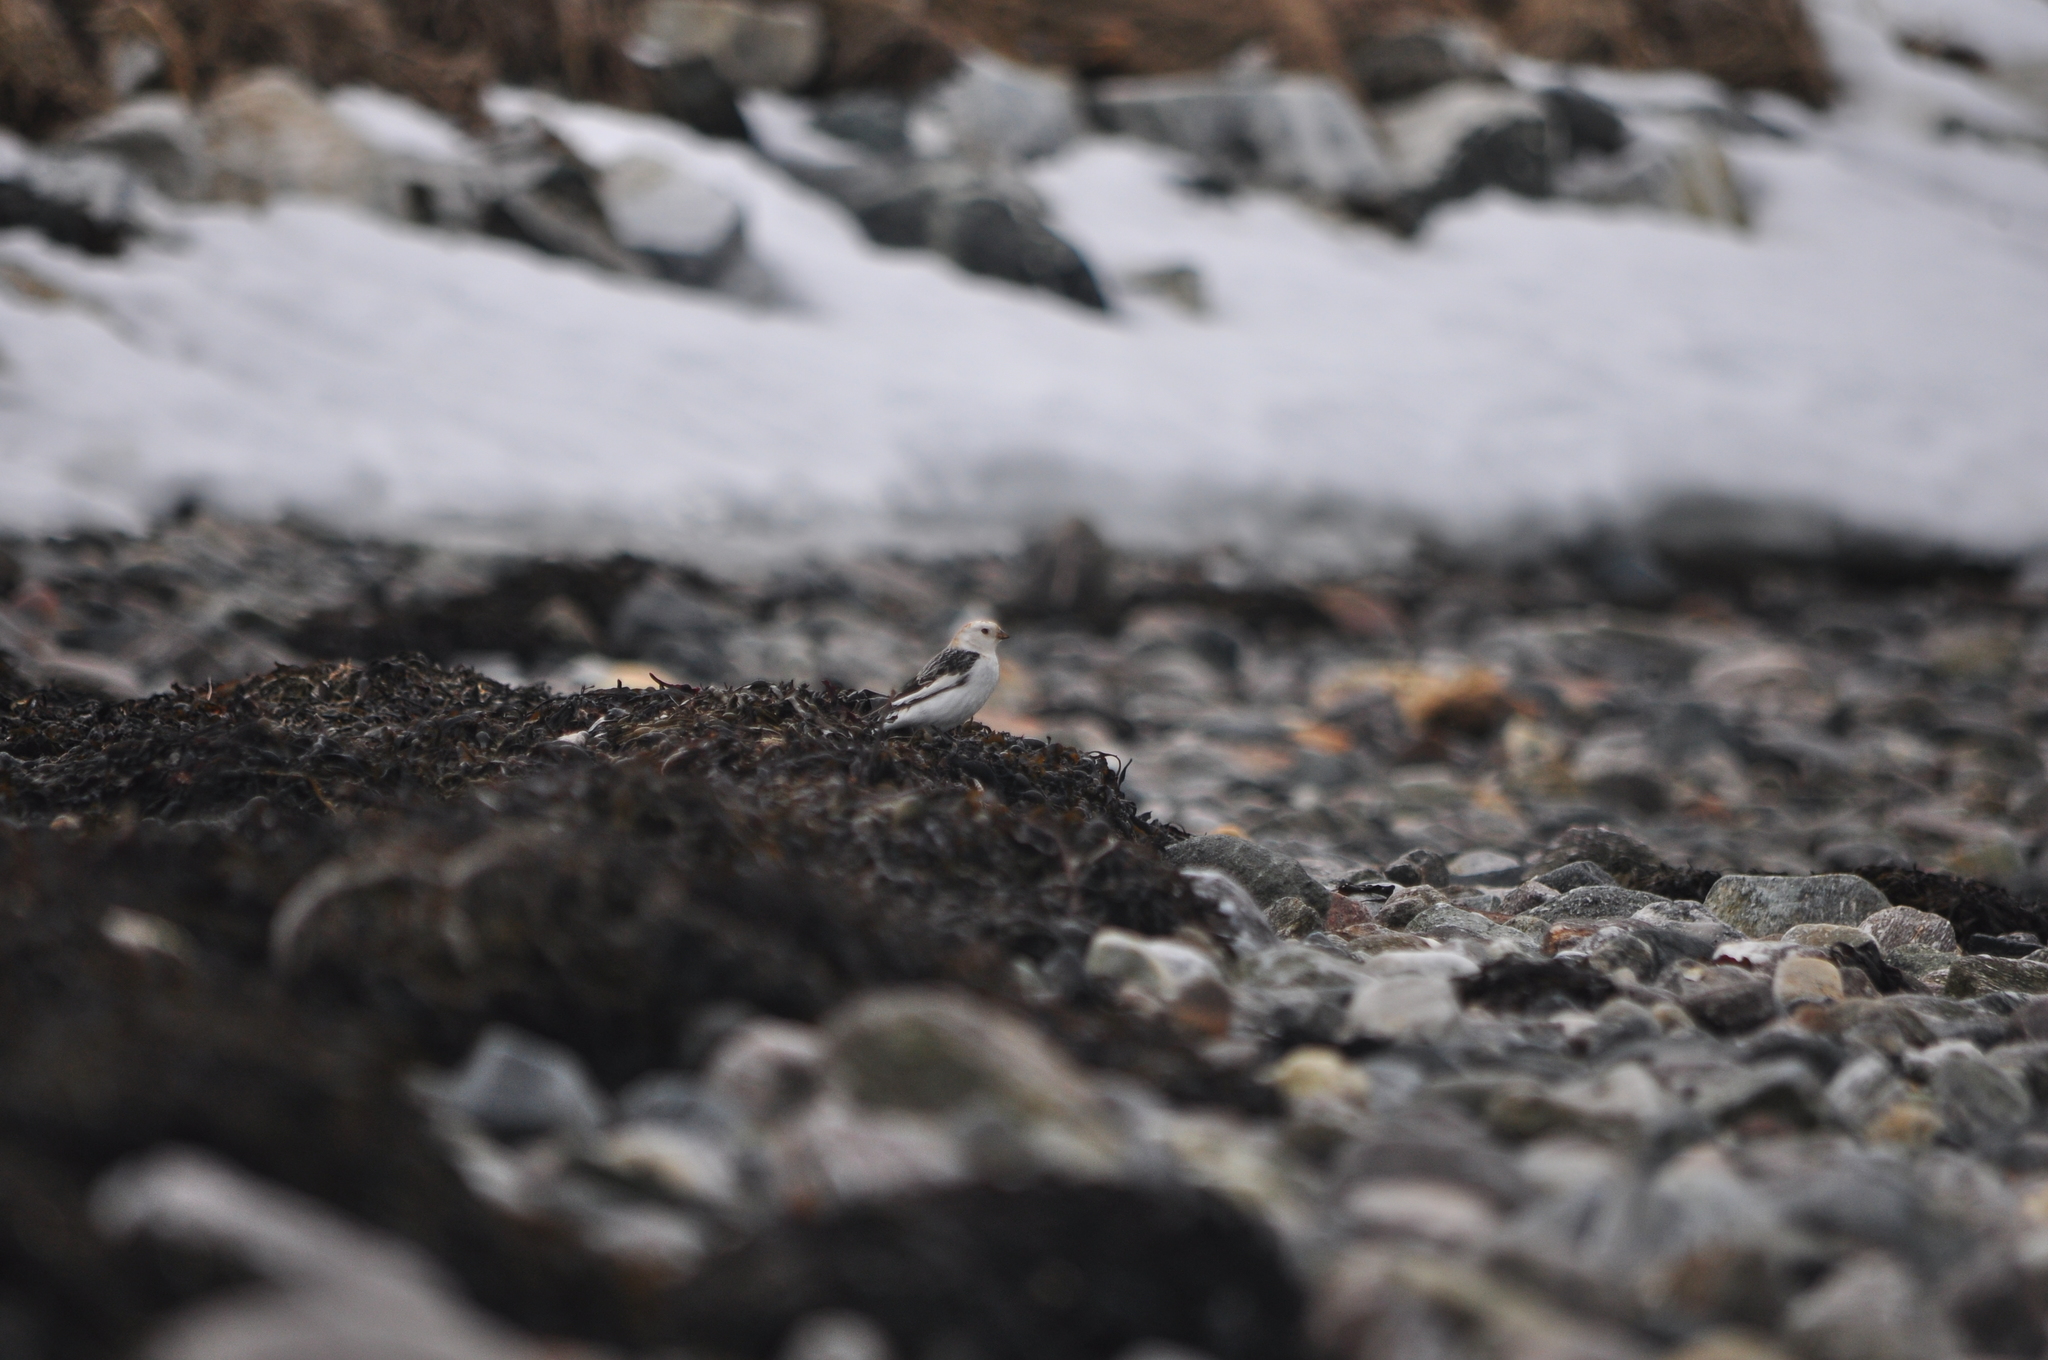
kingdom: Animalia
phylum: Chordata
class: Aves
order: Passeriformes
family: Calcariidae
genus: Plectrophenax
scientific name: Plectrophenax nivalis
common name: Snow bunting
